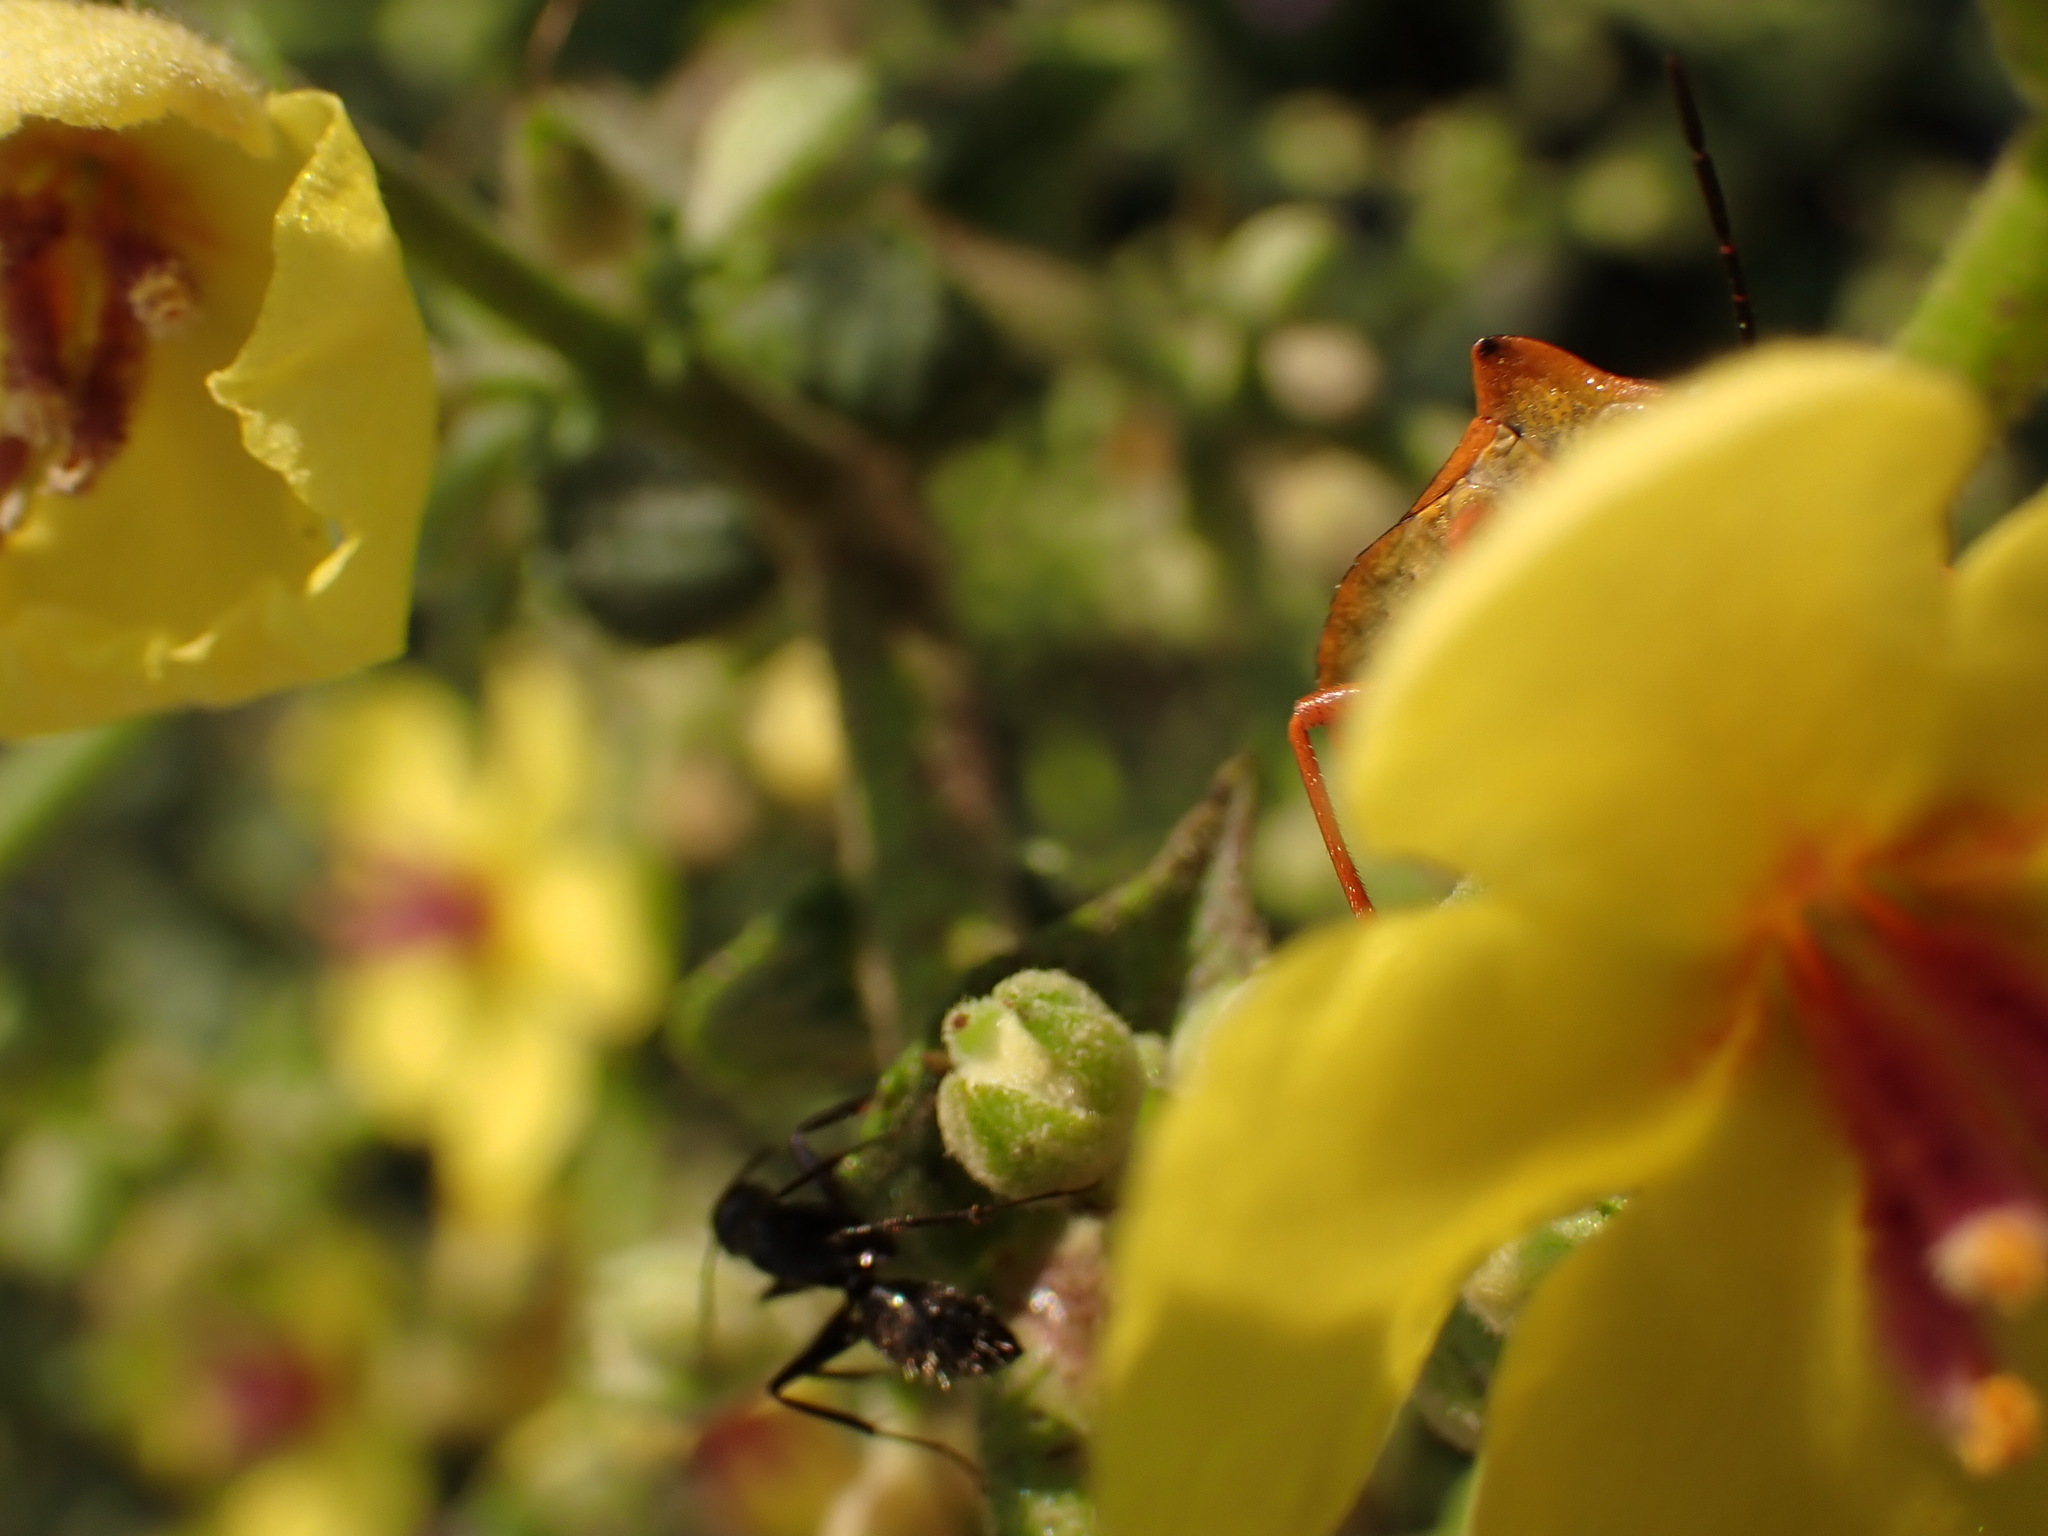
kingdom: Animalia
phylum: Arthropoda
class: Insecta
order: Hemiptera
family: Pentatomidae
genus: Carpocoris
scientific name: Carpocoris mediterraneus
